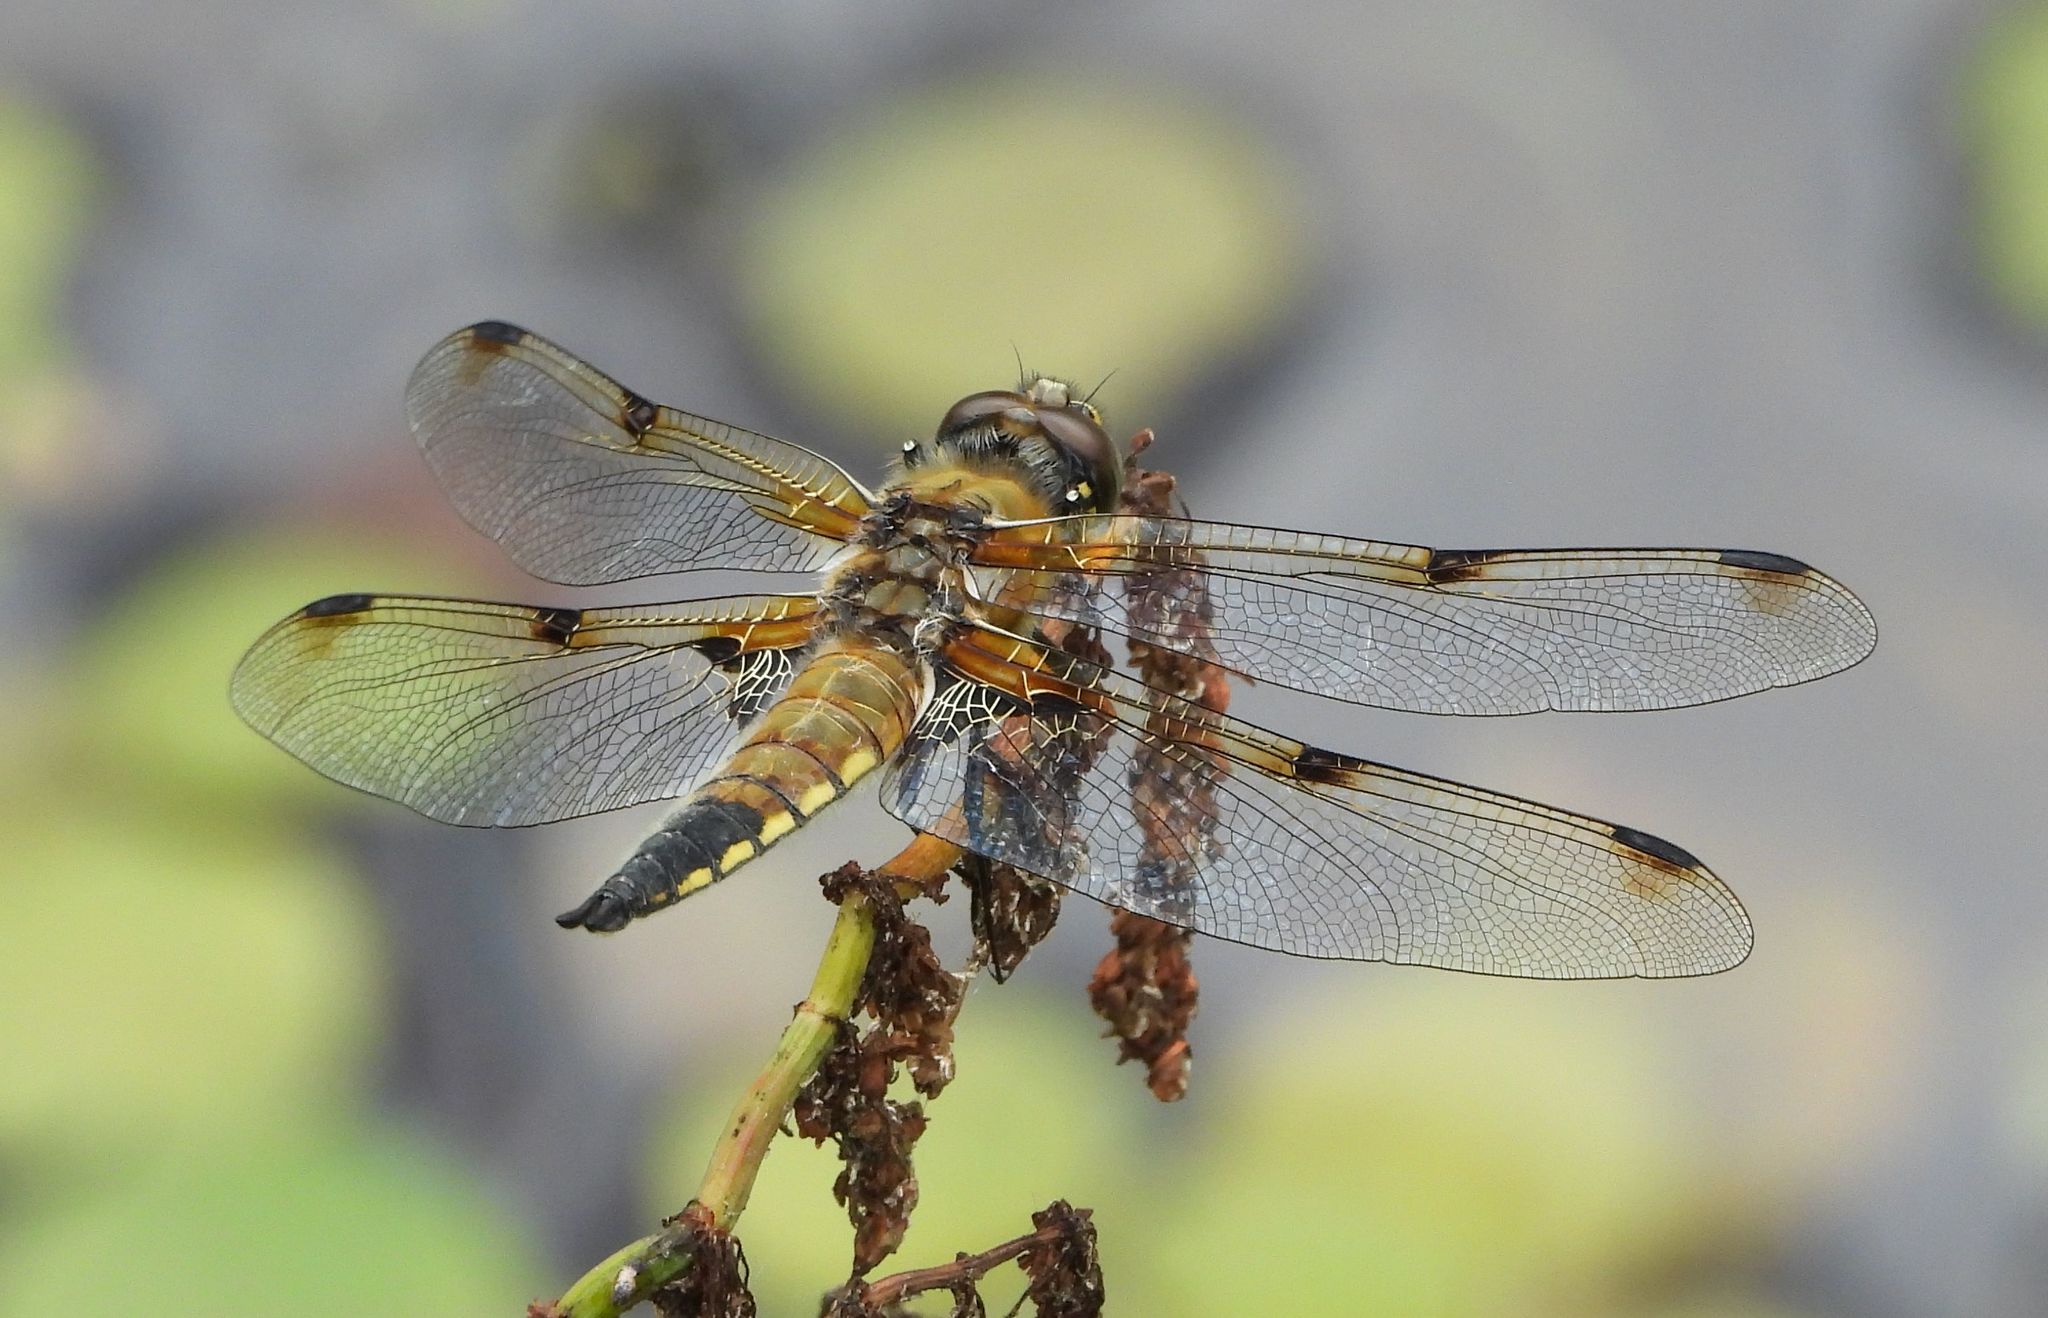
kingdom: Animalia
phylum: Arthropoda
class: Insecta
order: Odonata
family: Libellulidae
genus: Libellula
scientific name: Libellula quadrimaculata
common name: Four-spotted chaser
